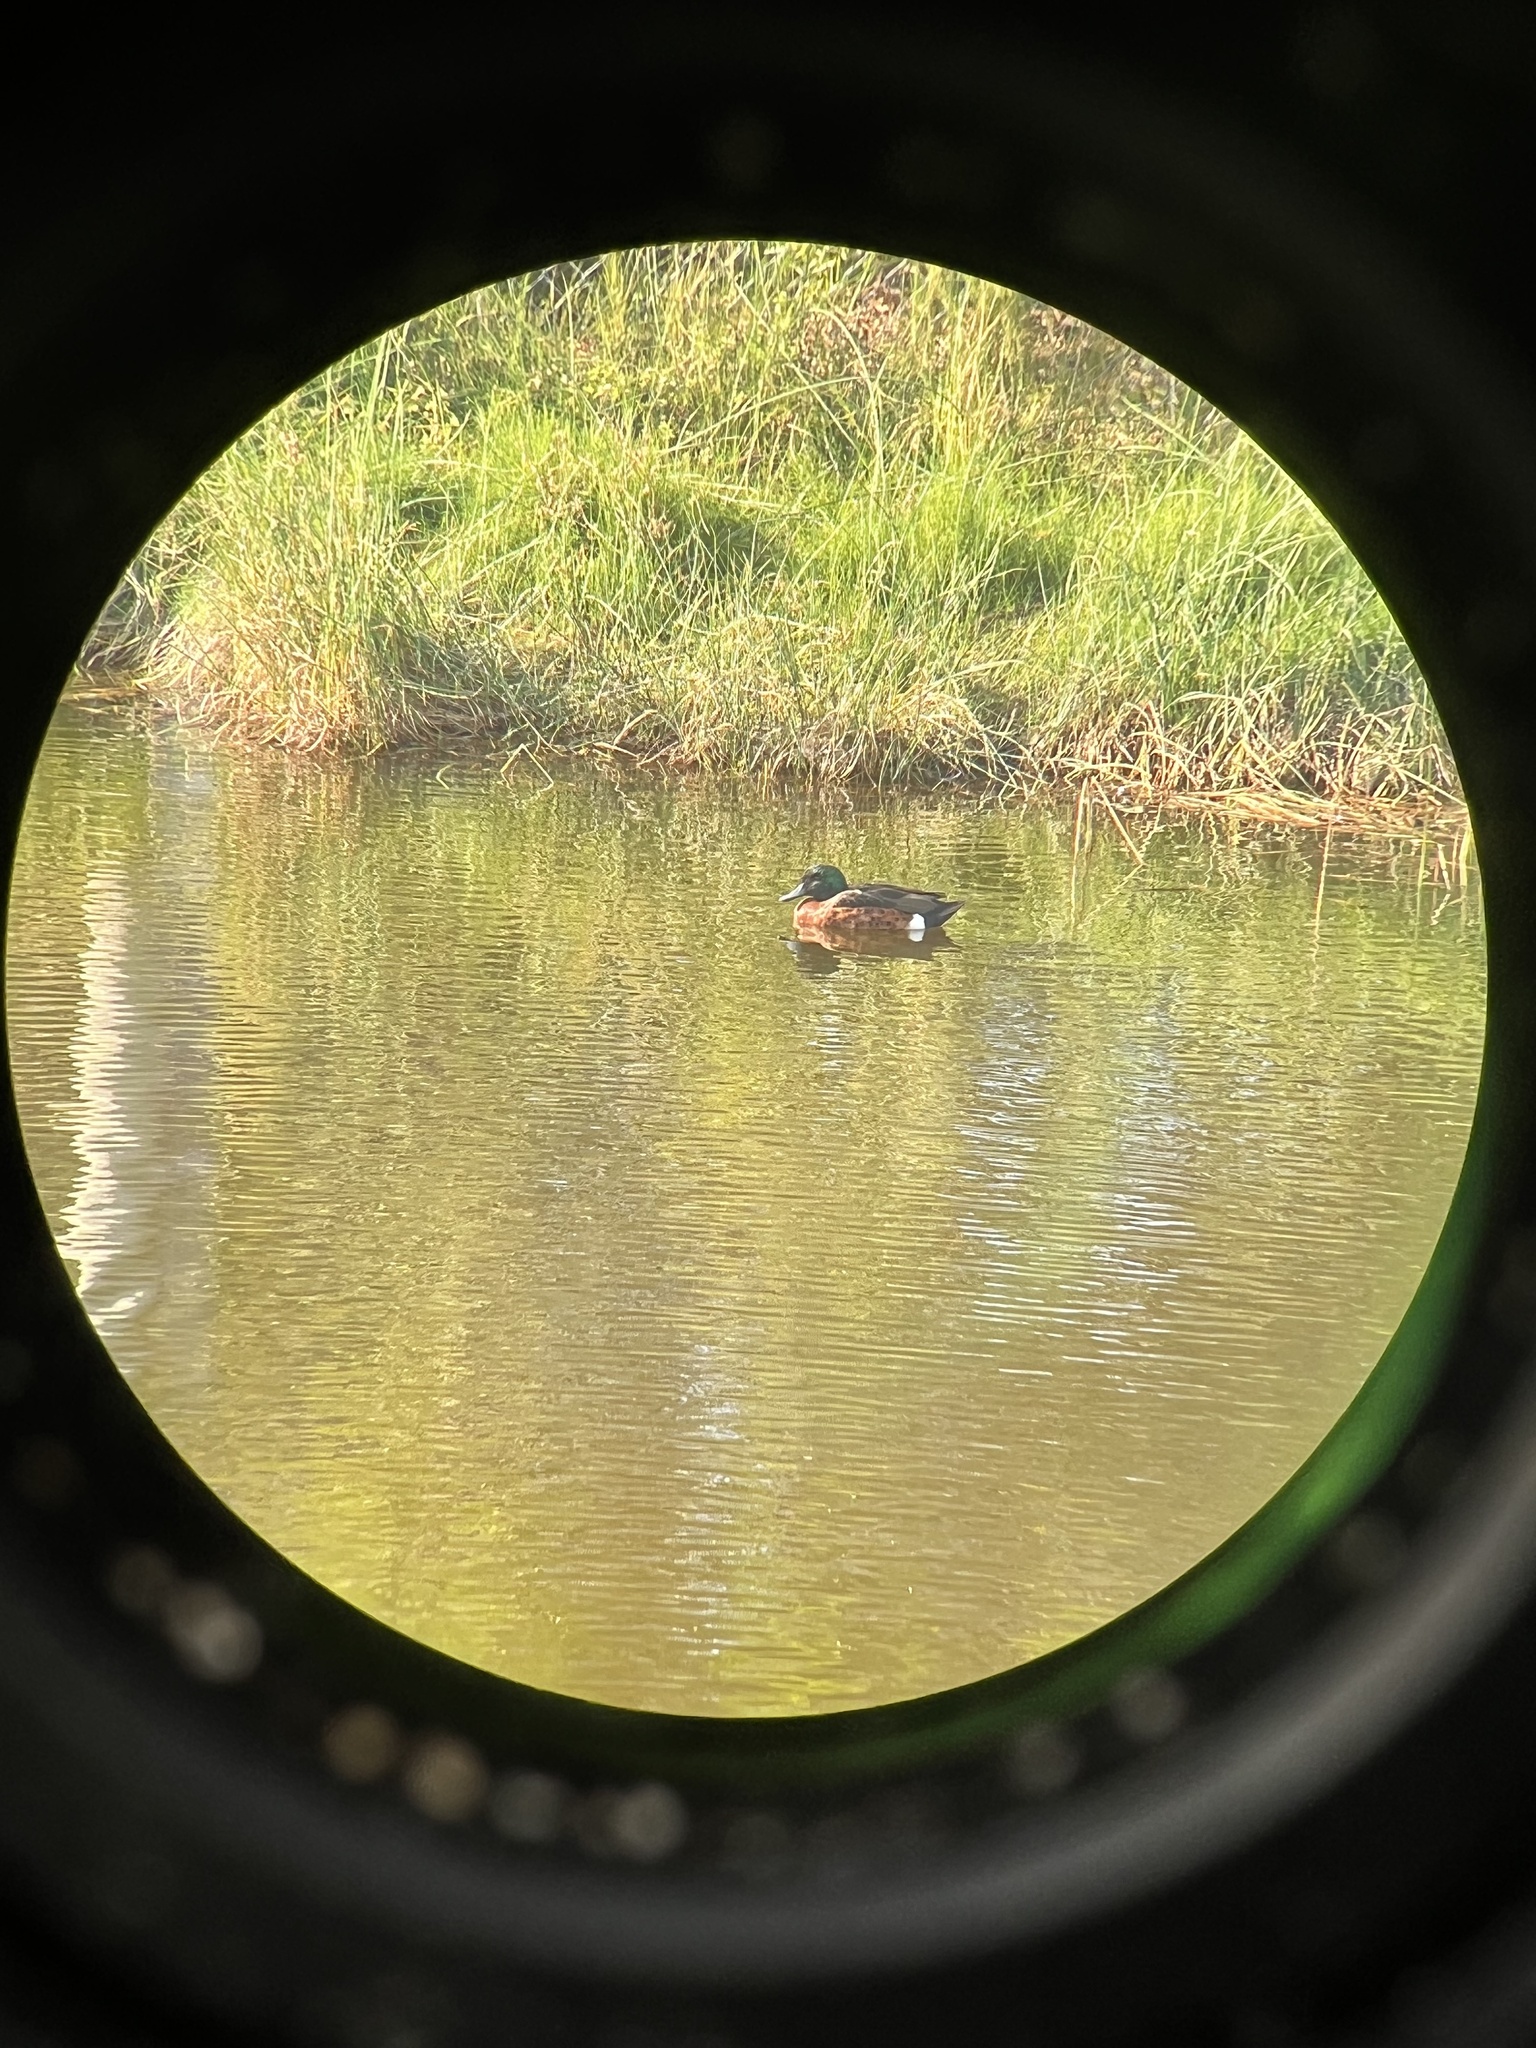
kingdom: Animalia
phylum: Chordata
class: Aves
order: Anseriformes
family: Anatidae
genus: Anas
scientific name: Anas castanea
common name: Chestnut teal
